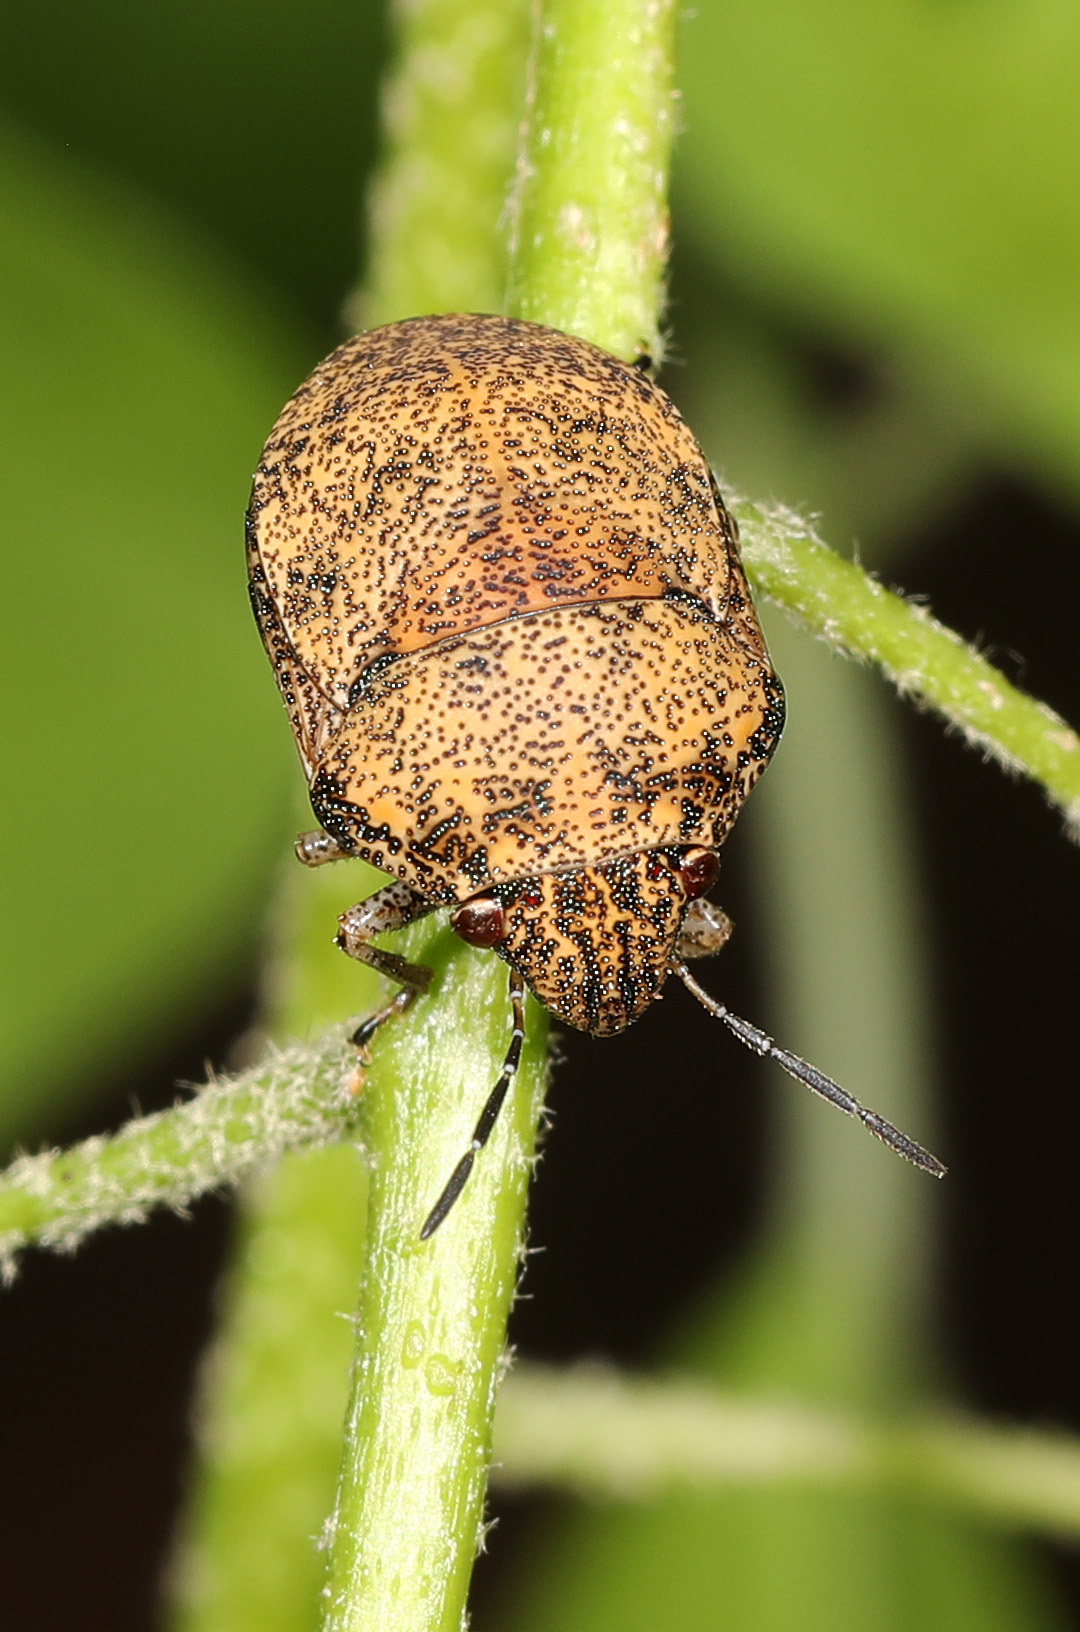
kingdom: Animalia
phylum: Arthropoda
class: Insecta
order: Hemiptera
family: Scutelleridae
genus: Orsilochides
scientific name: Orsilochides
